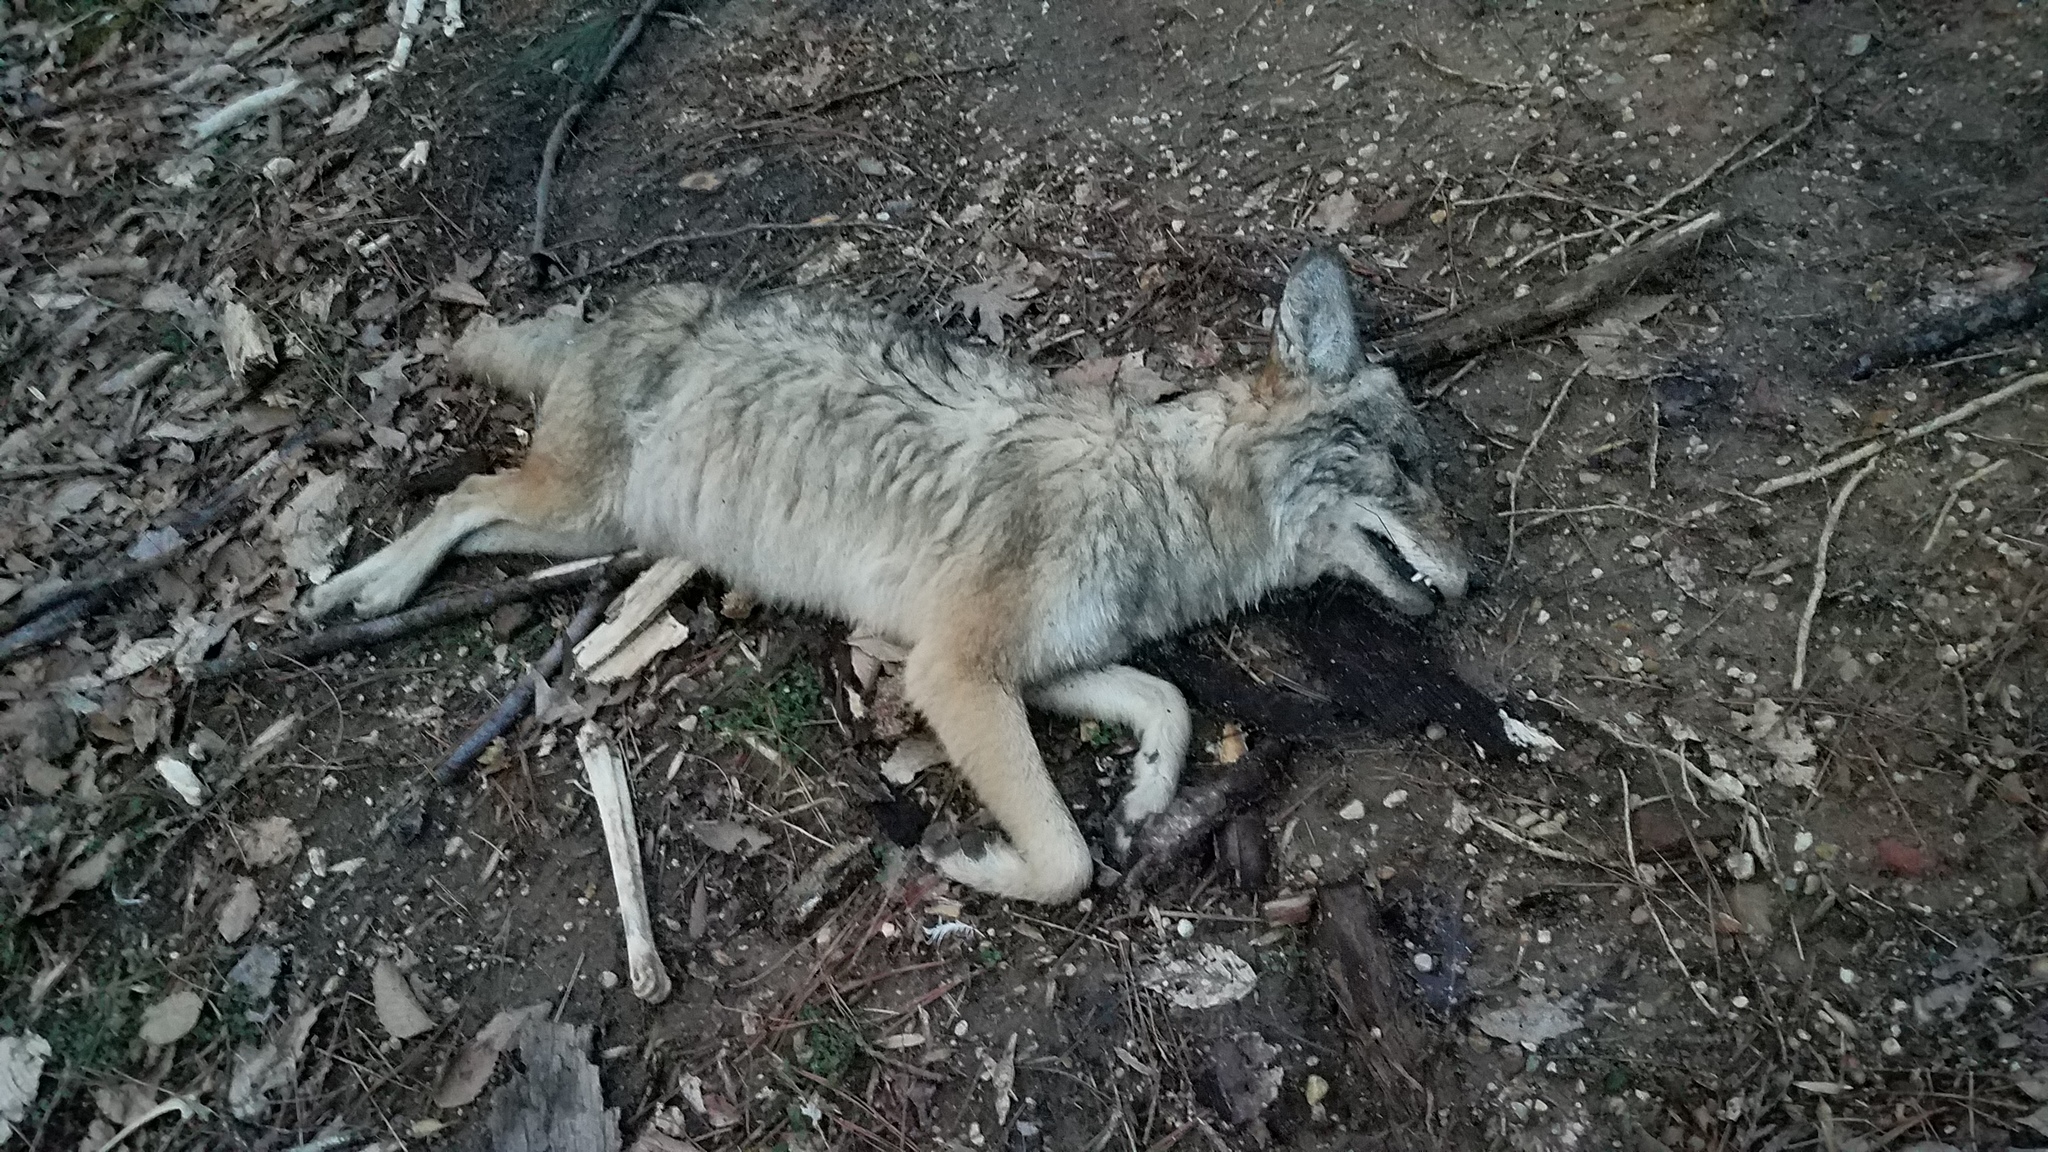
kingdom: Animalia
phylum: Chordata
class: Mammalia
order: Carnivora
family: Canidae
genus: Canis
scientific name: Canis latrans
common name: Coyote
